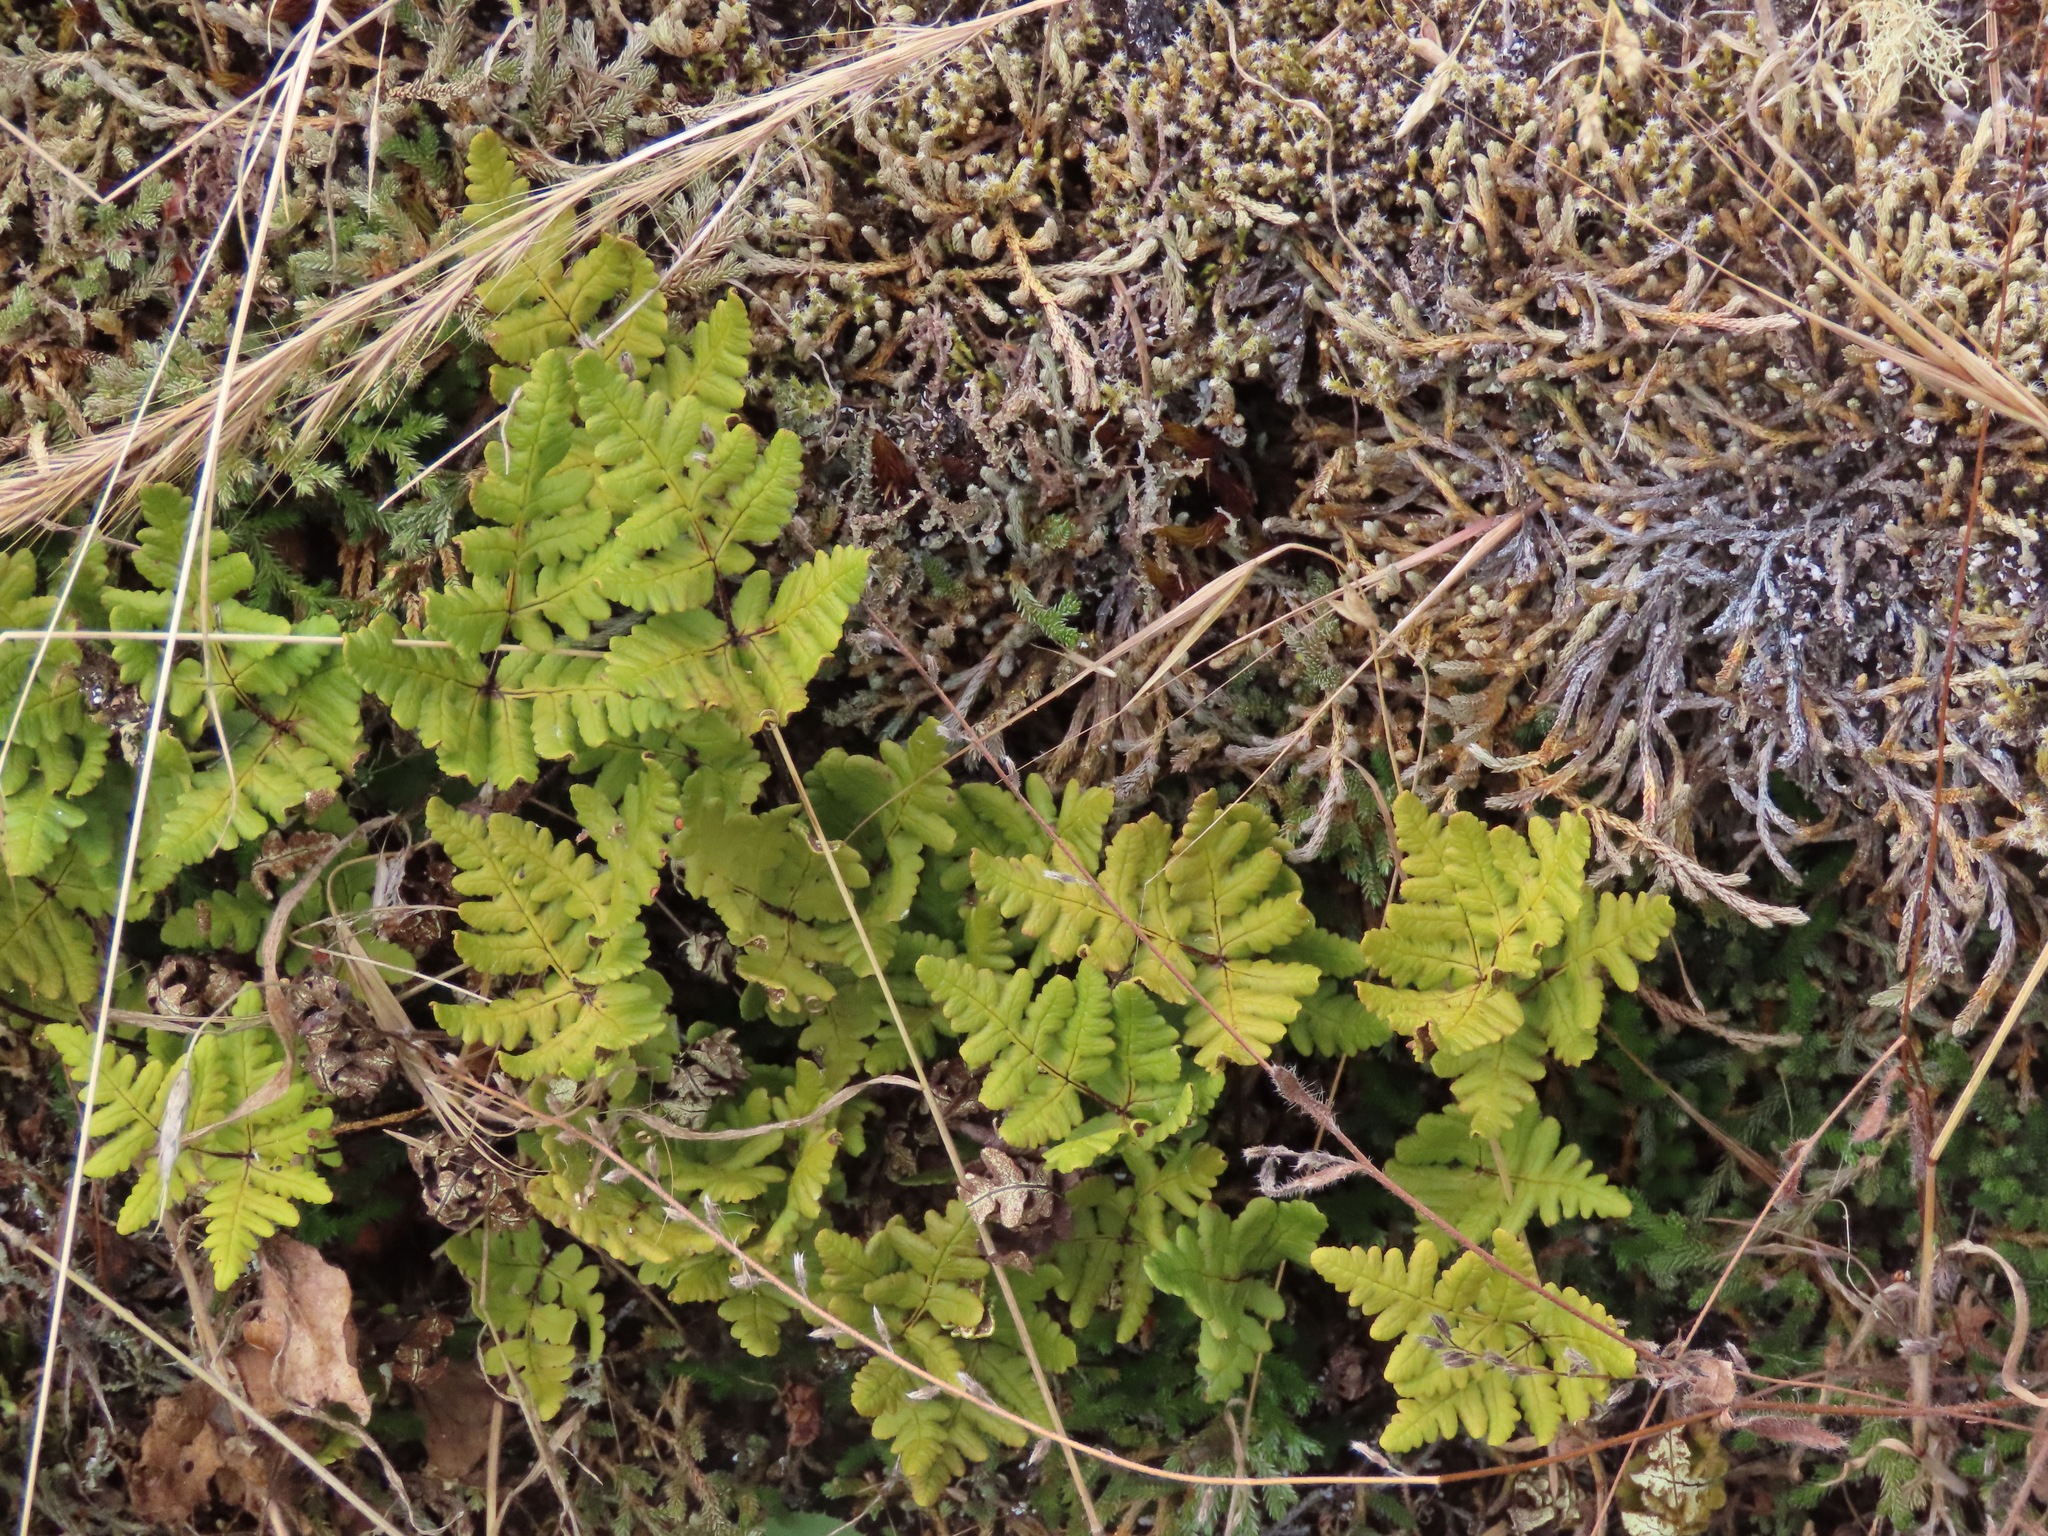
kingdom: Plantae
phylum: Tracheophyta
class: Polypodiopsida
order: Polypodiales
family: Pteridaceae
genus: Pentagramma
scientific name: Pentagramma triangularis
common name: Gold fern
